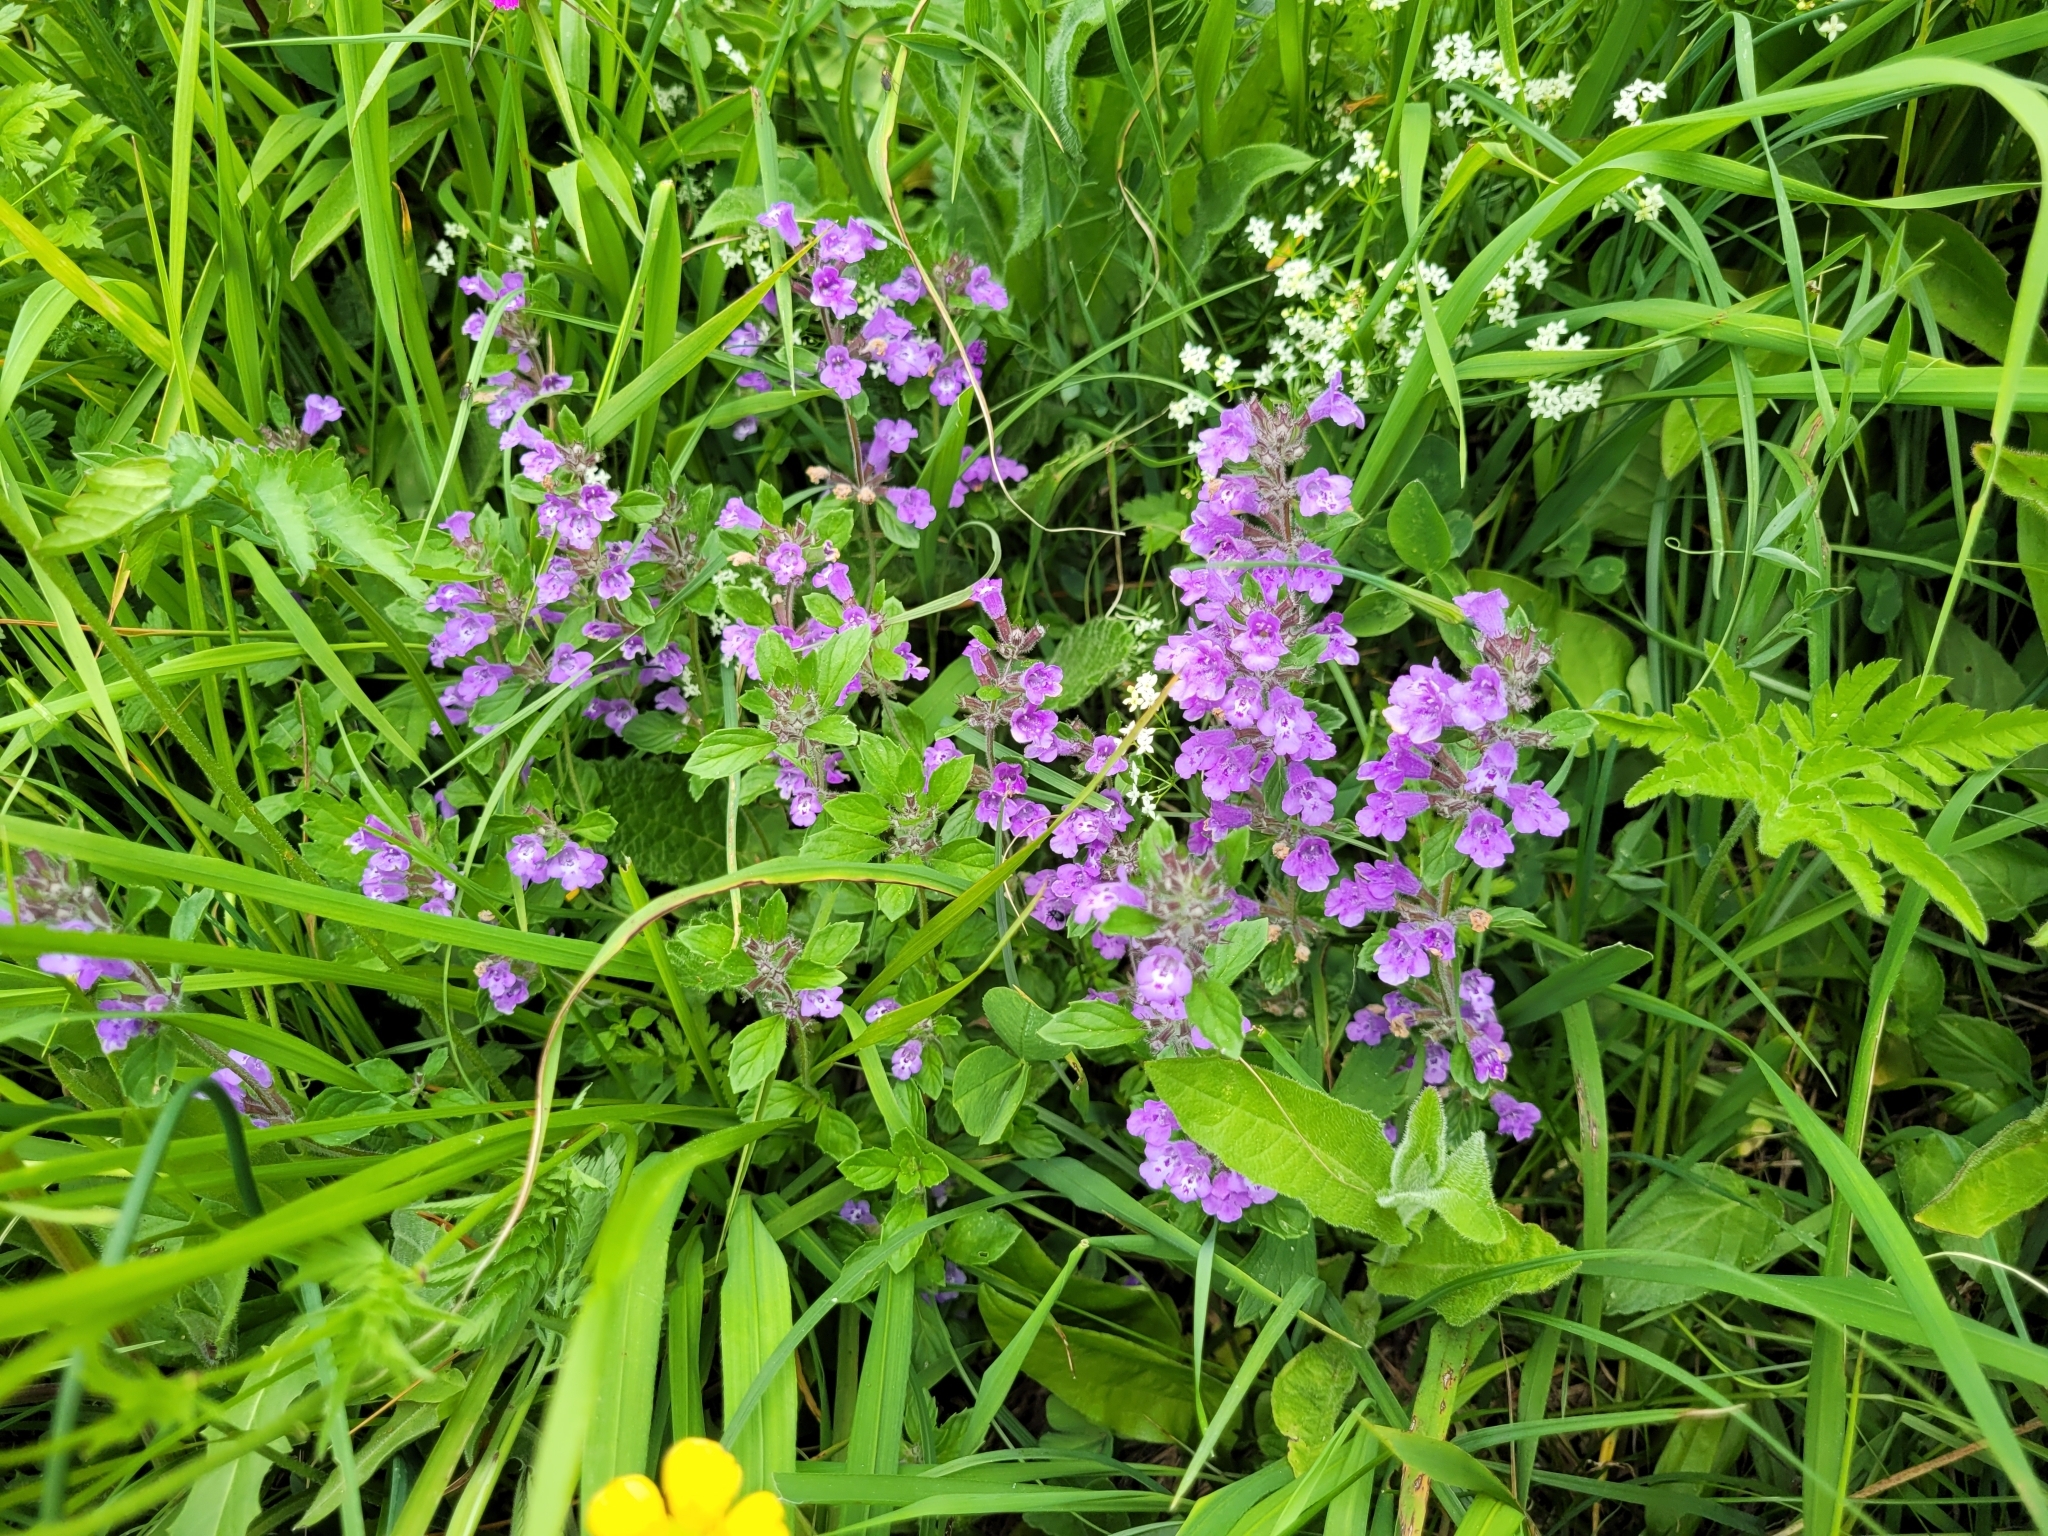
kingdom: Plantae
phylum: Tracheophyta
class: Magnoliopsida
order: Lamiales
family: Lamiaceae
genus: Clinopodium
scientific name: Clinopodium alpinum
